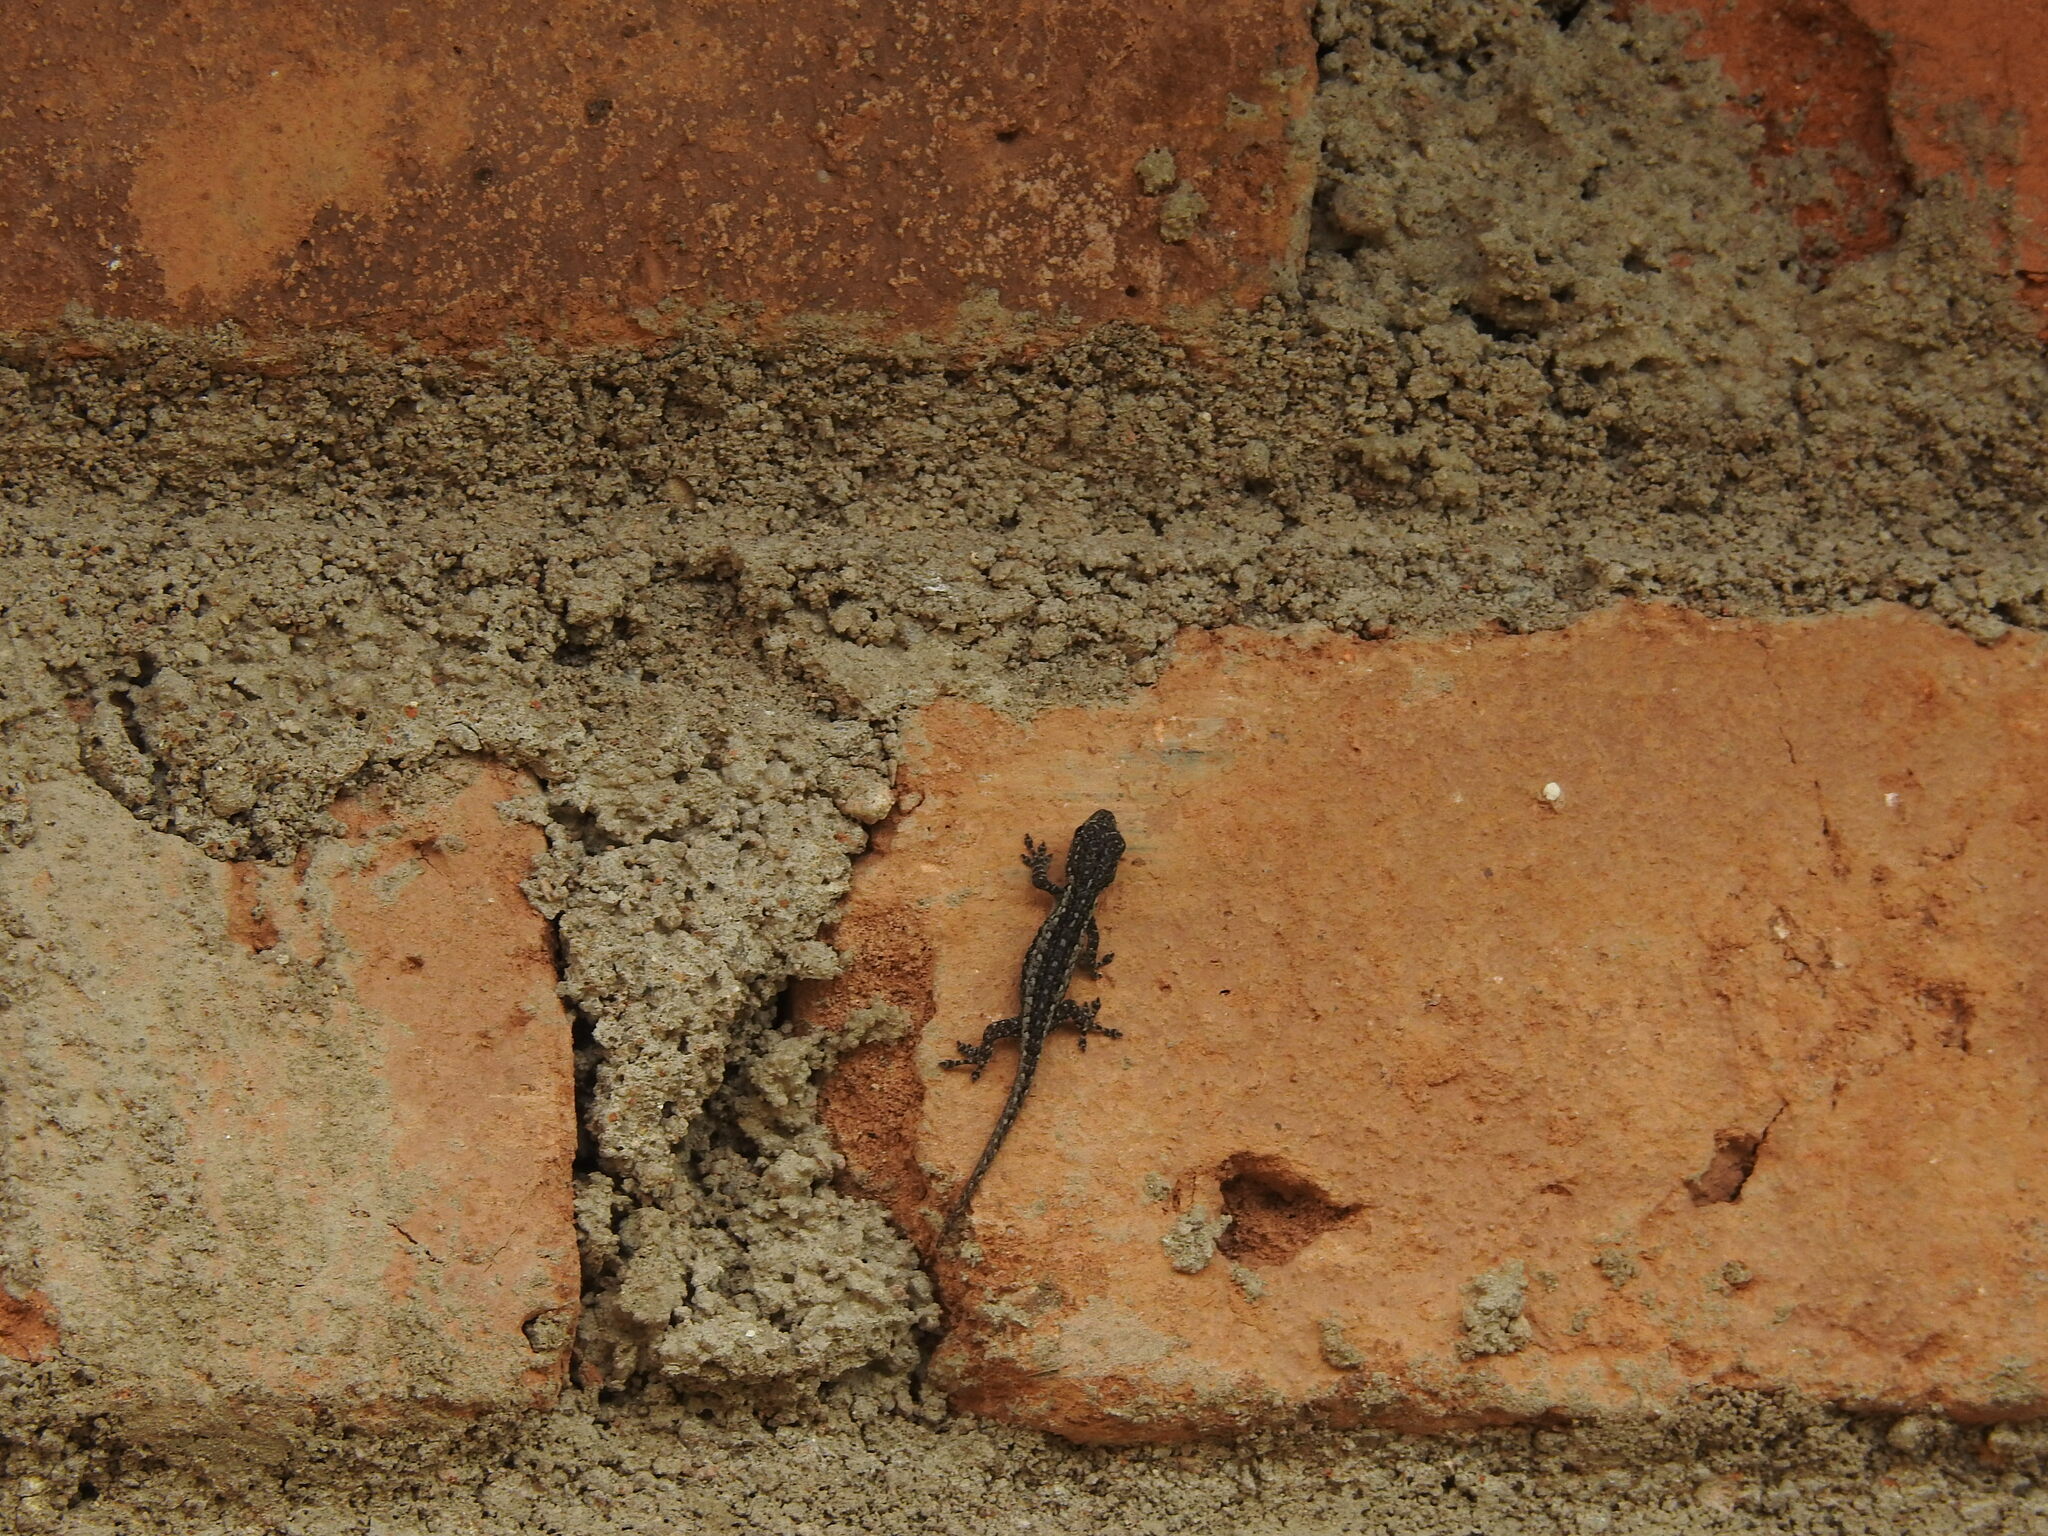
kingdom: Animalia
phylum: Chordata
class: Squamata
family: Gekkonidae
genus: Lygodactylus
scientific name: Lygodactylus angularis
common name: Angulate dwarf gecko
